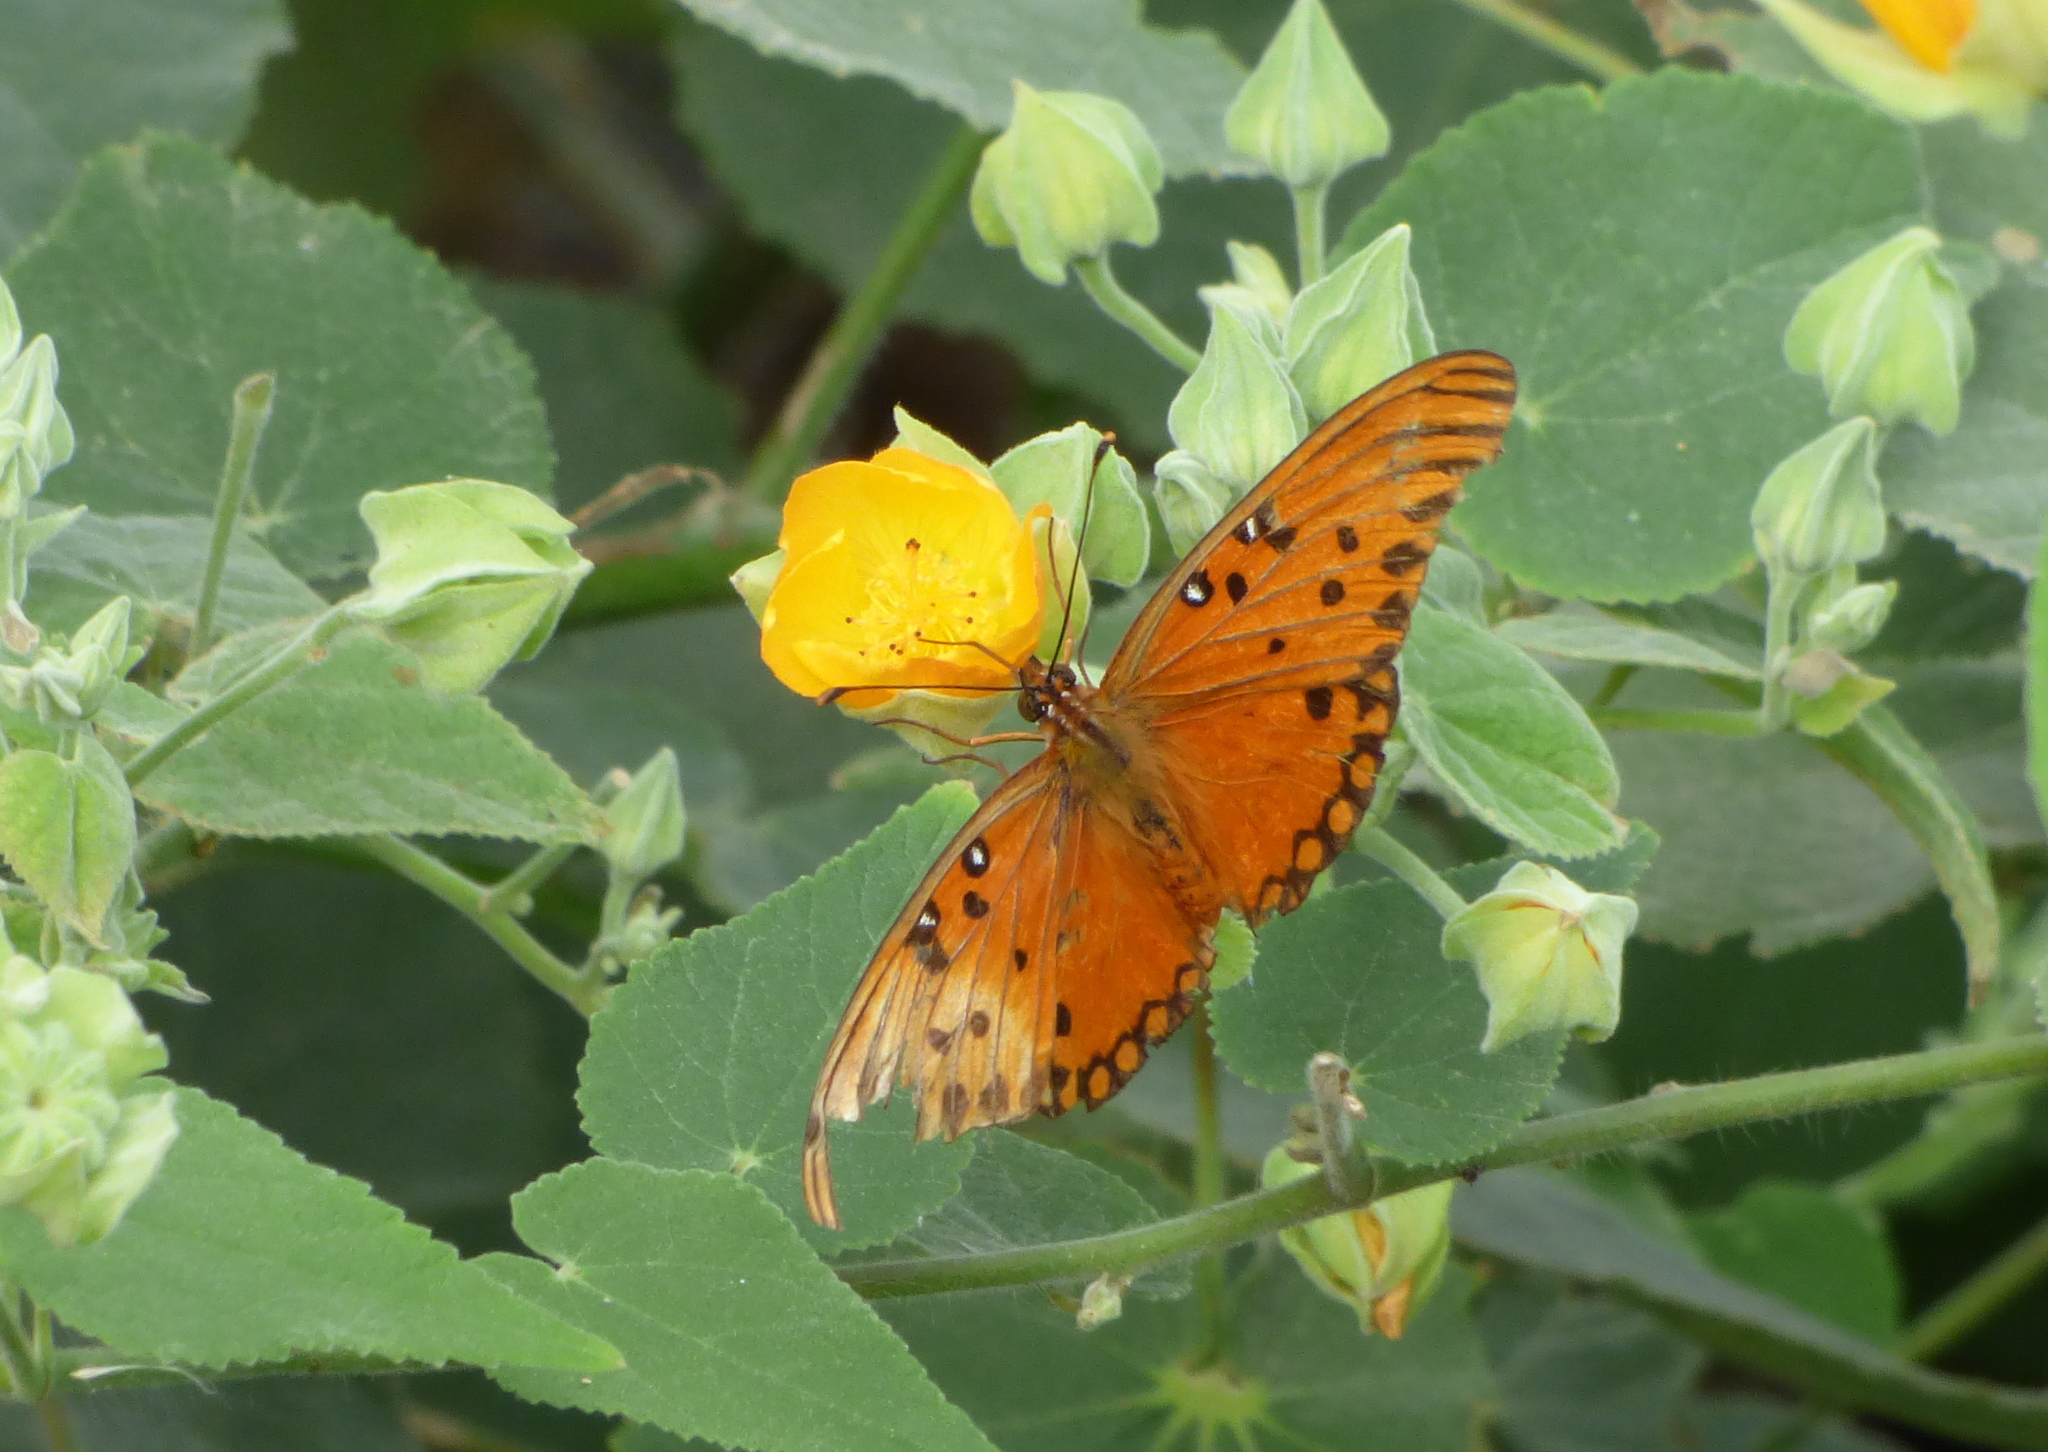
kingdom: Animalia
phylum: Arthropoda
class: Insecta
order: Lepidoptera
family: Nymphalidae
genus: Dione
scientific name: Dione vanillae
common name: Gulf fritillary
